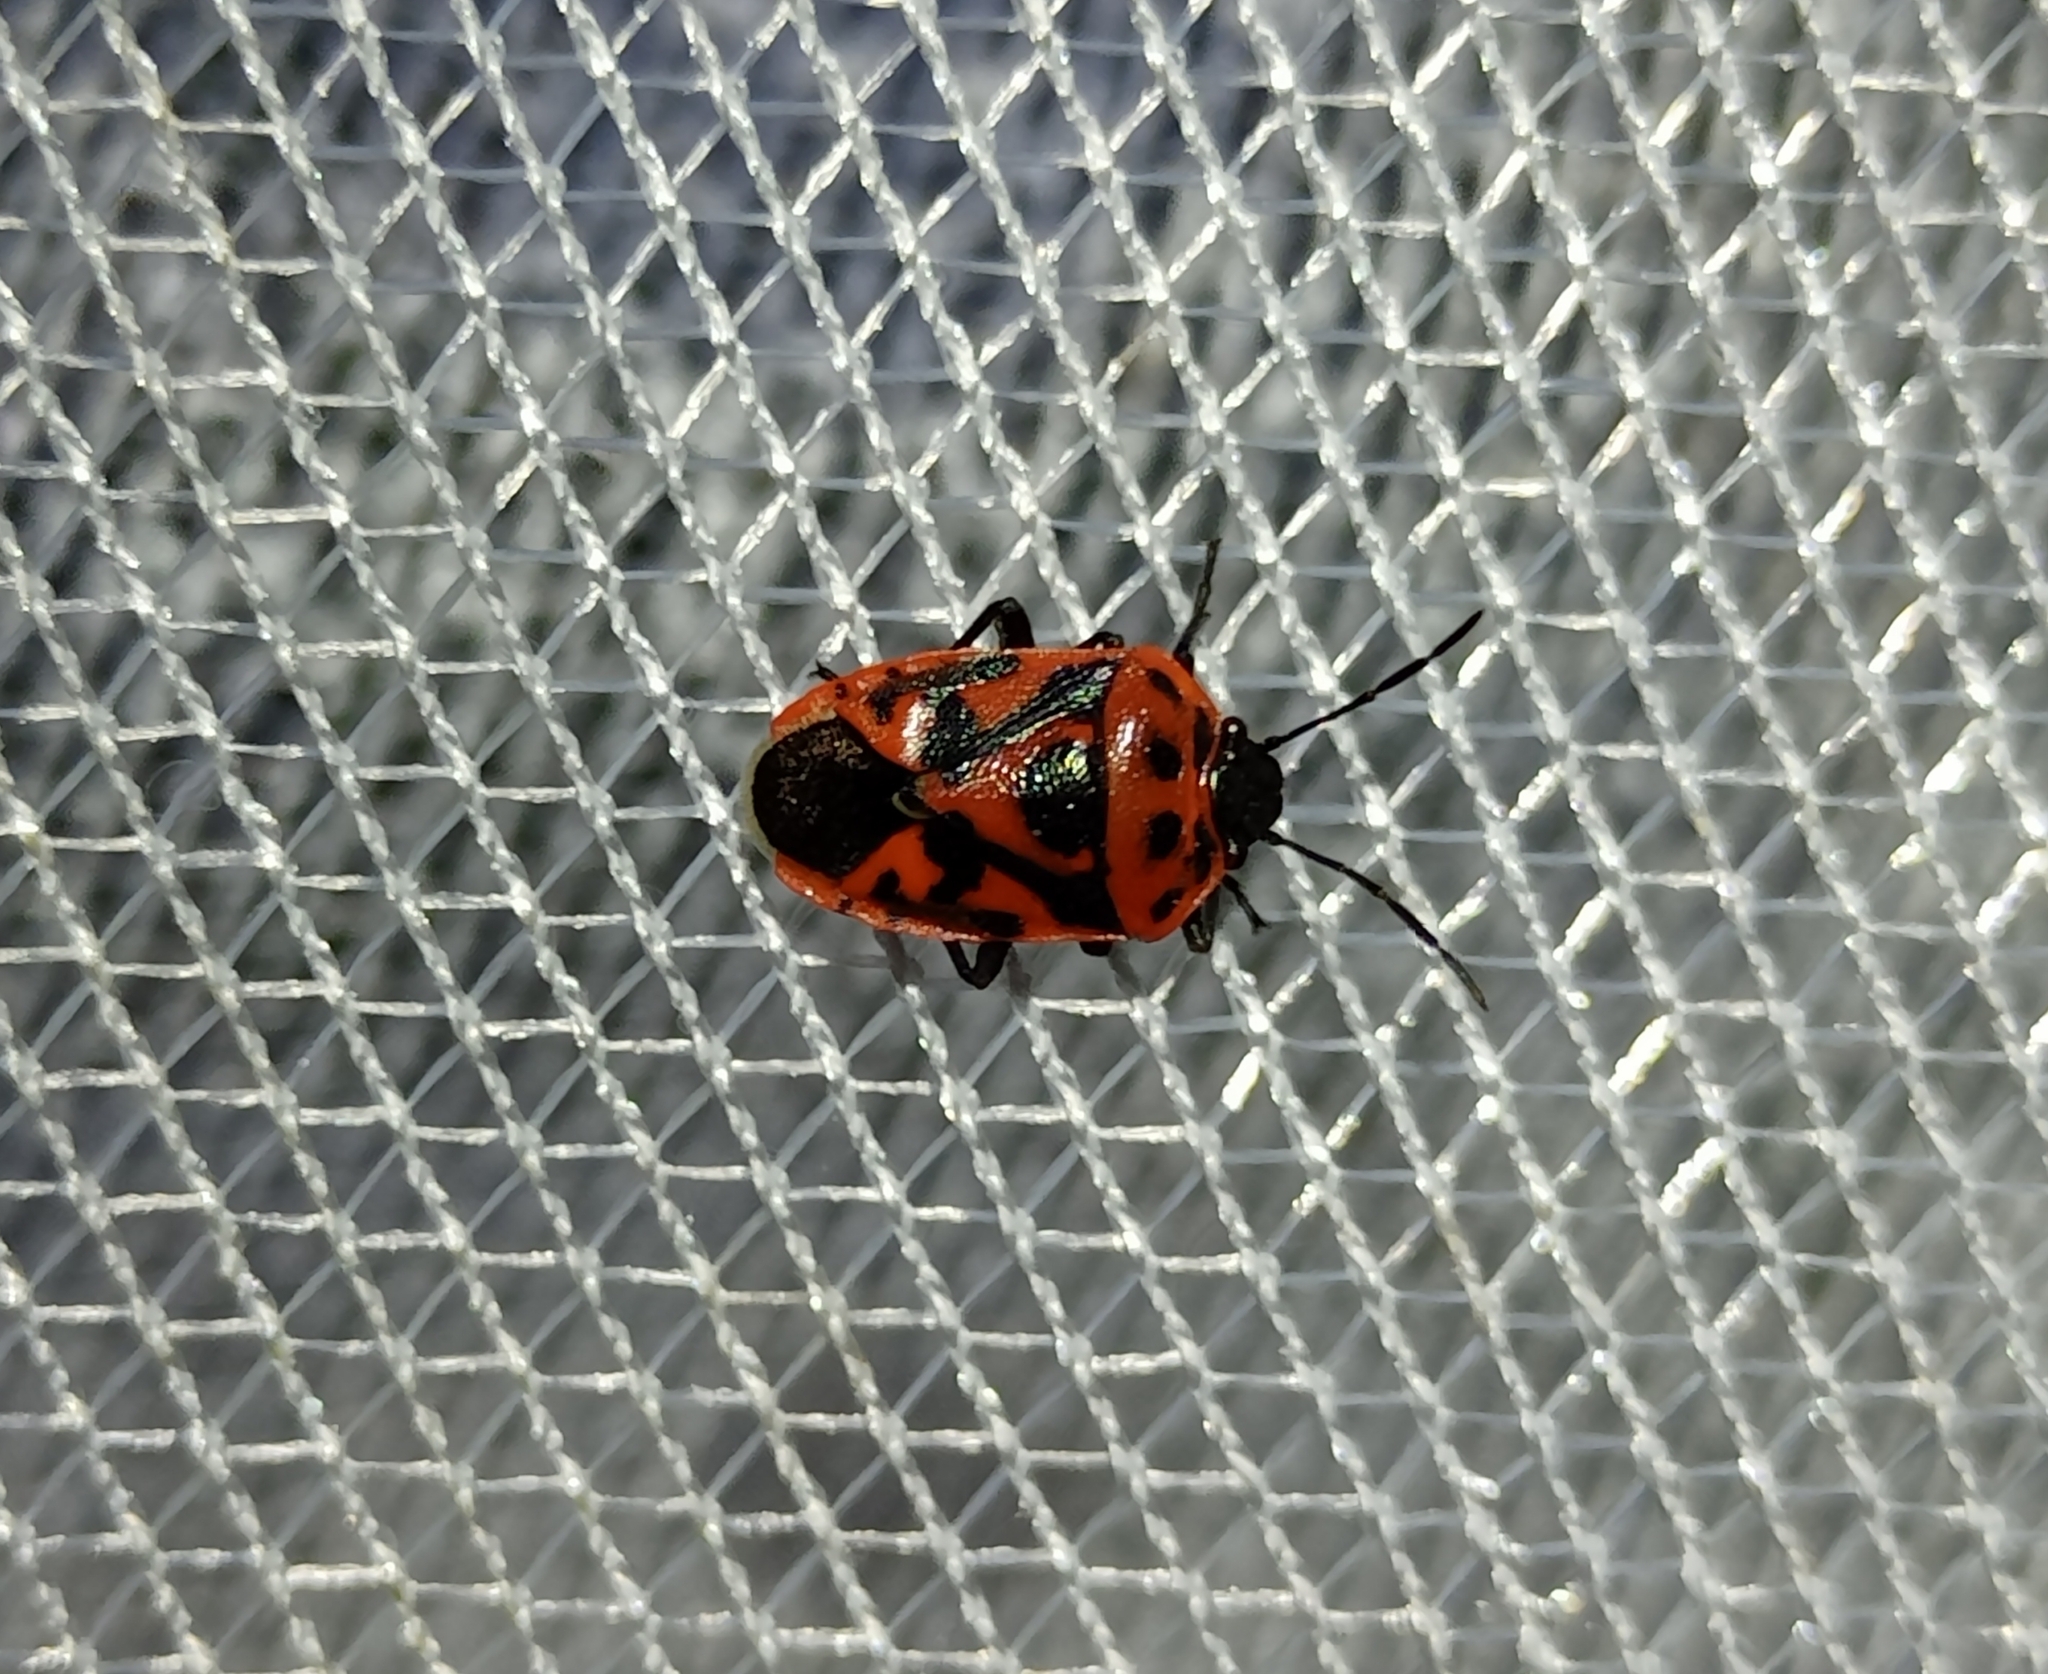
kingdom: Animalia
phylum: Arthropoda
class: Insecta
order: Hemiptera
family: Pentatomidae
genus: Eurydema
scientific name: Eurydema ornata
